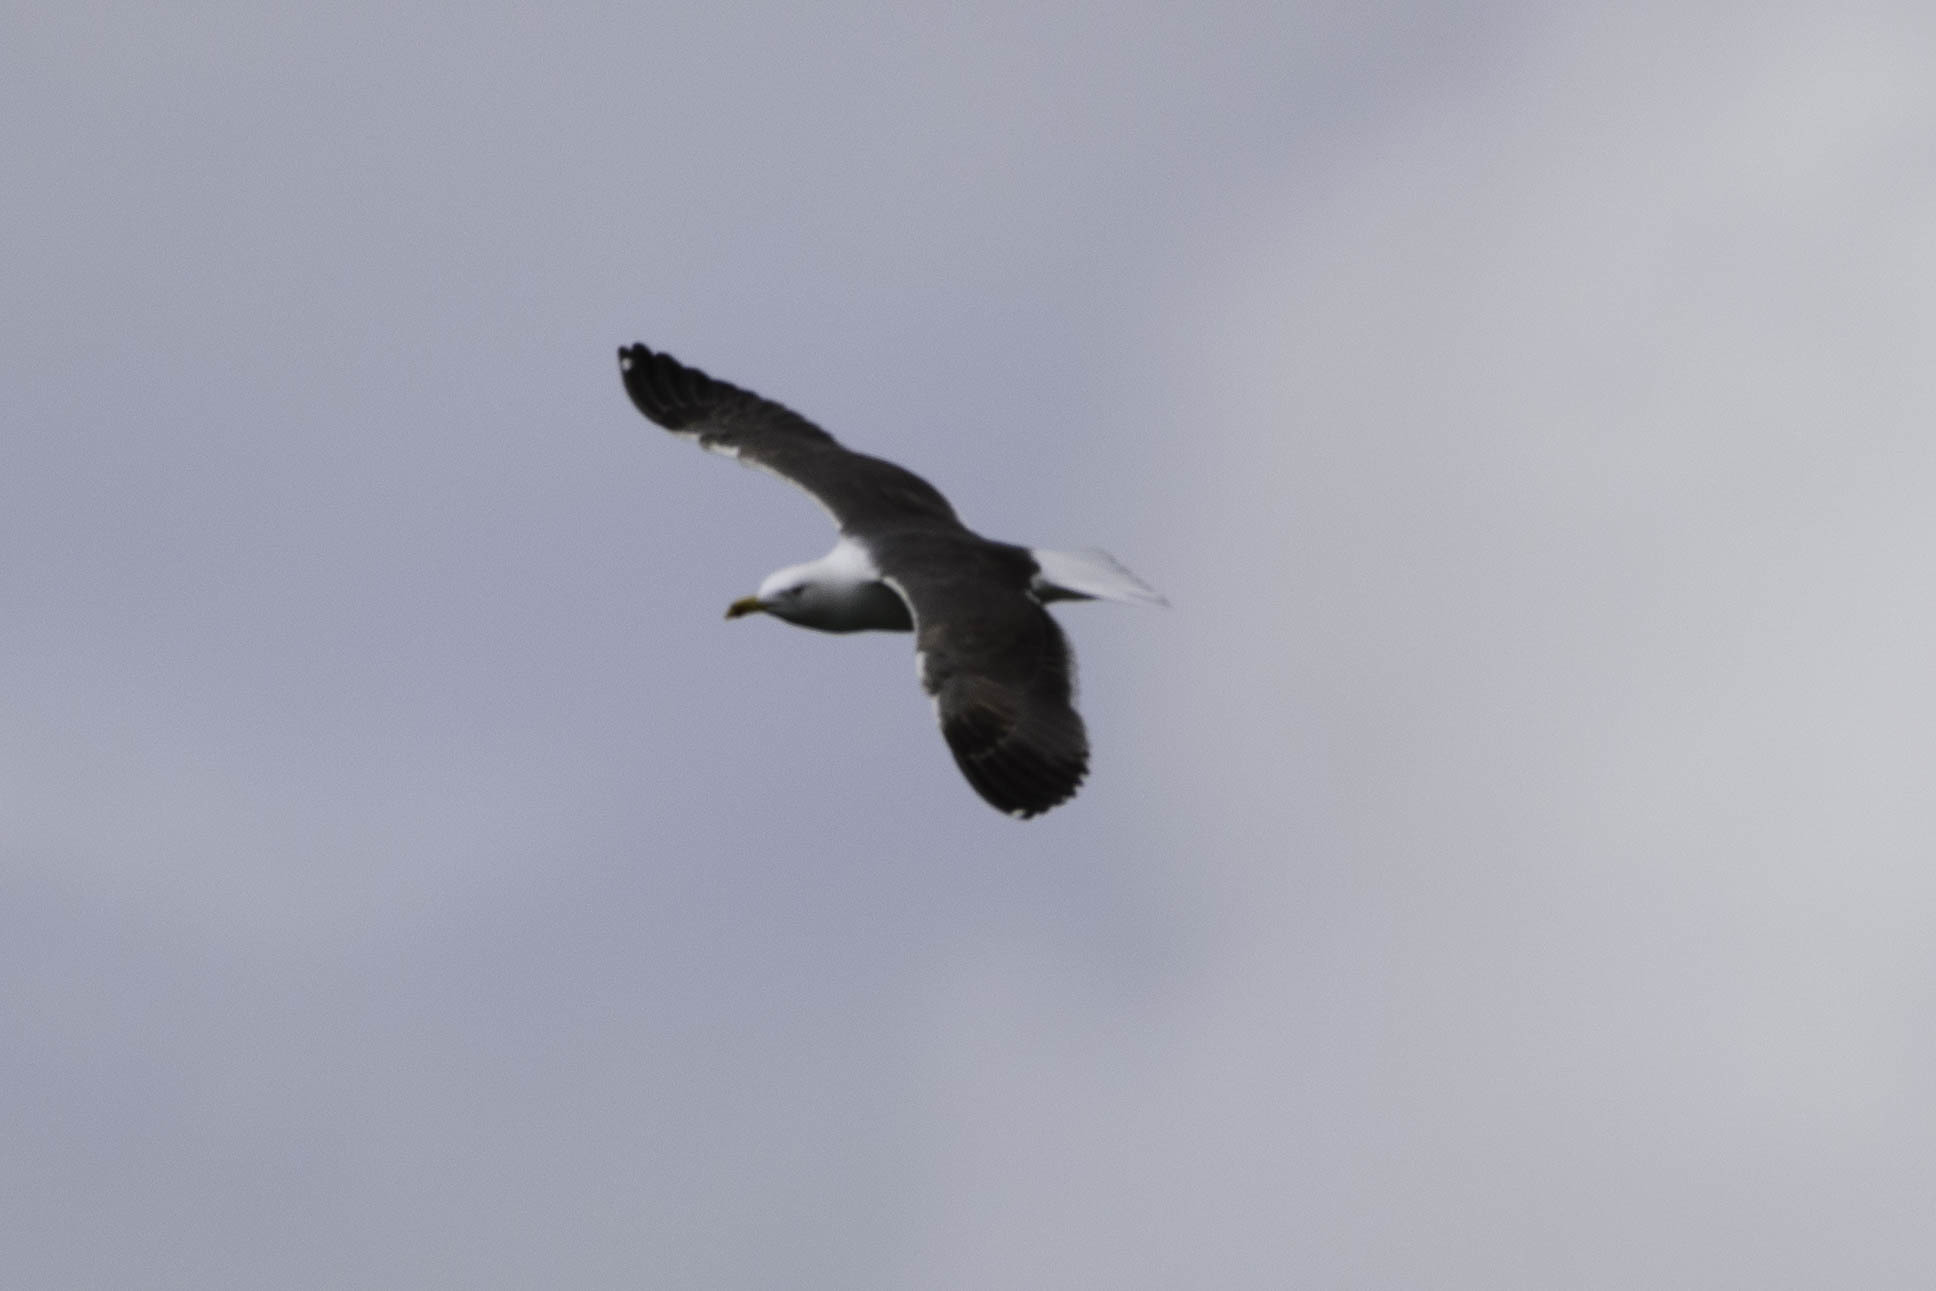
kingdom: Animalia
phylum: Chordata
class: Aves
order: Charadriiformes
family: Laridae
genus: Larus
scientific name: Larus fuscus
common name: Lesser black-backed gull
